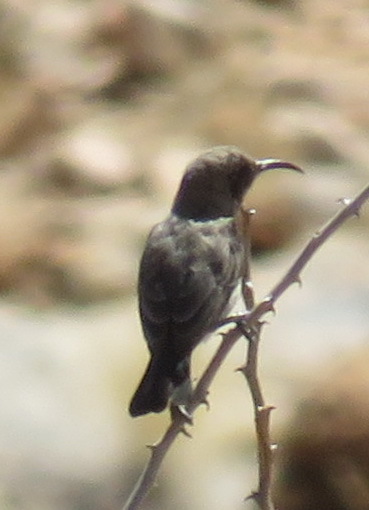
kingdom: Animalia
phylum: Chordata
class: Aves
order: Passeriformes
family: Nectariniidae
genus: Cinnyris
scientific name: Cinnyris fuscus
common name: Dusky sunbird
